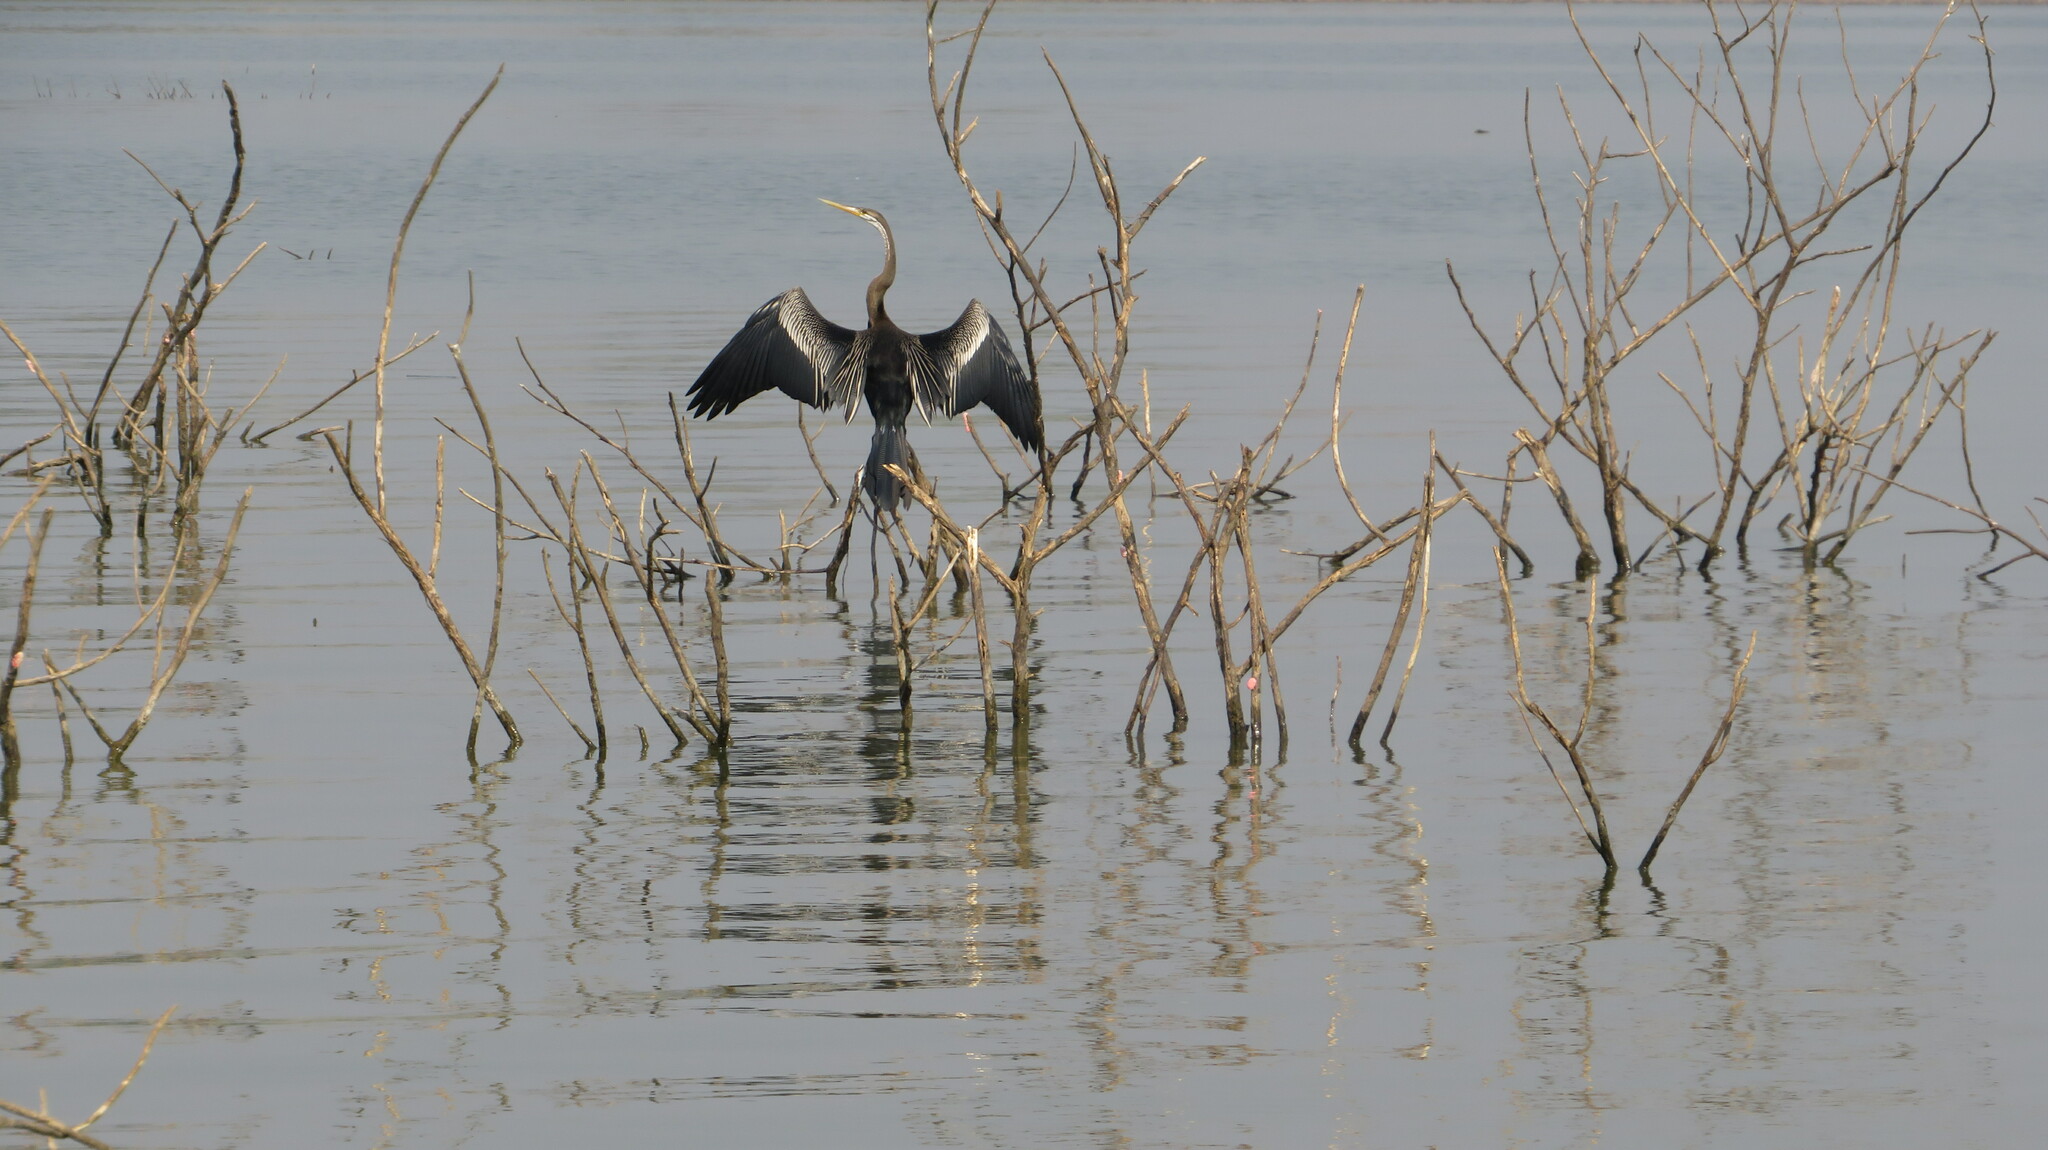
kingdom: Animalia
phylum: Chordata
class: Aves
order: Suliformes
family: Anhingidae
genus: Anhinga
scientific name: Anhinga melanogaster
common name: Oriental darter
